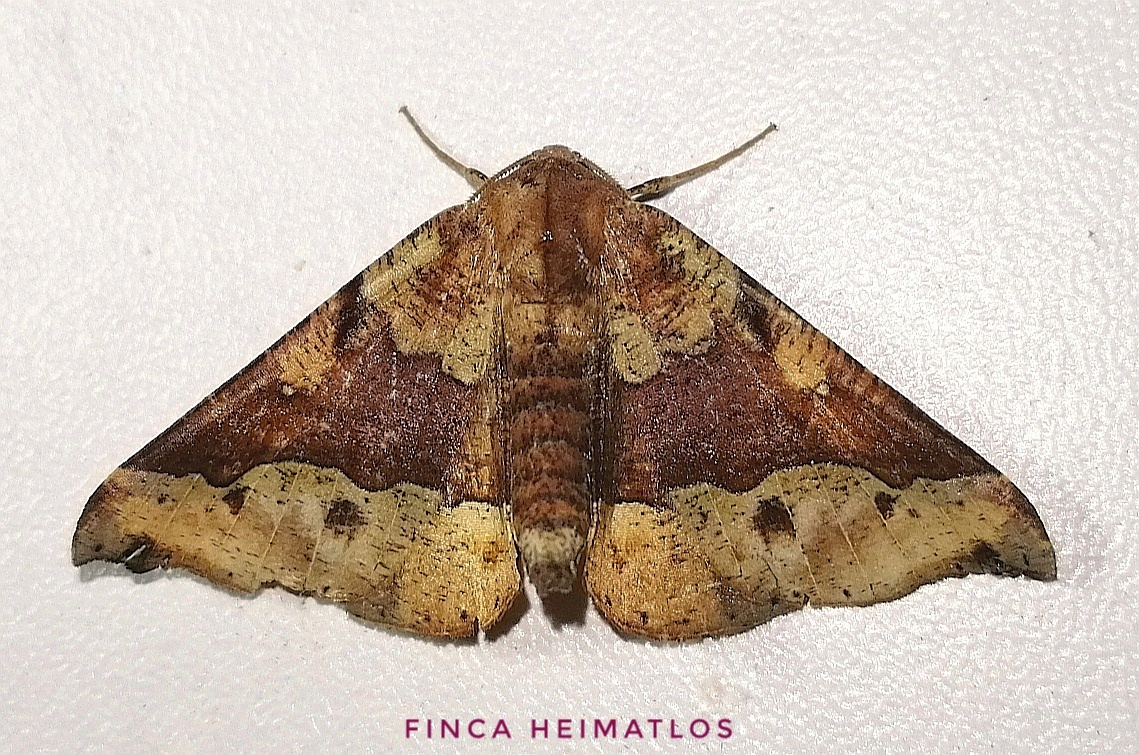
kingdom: Animalia
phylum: Arthropoda
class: Insecta
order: Lepidoptera
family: Geometridae
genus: Pero
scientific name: Pero disjuncta
